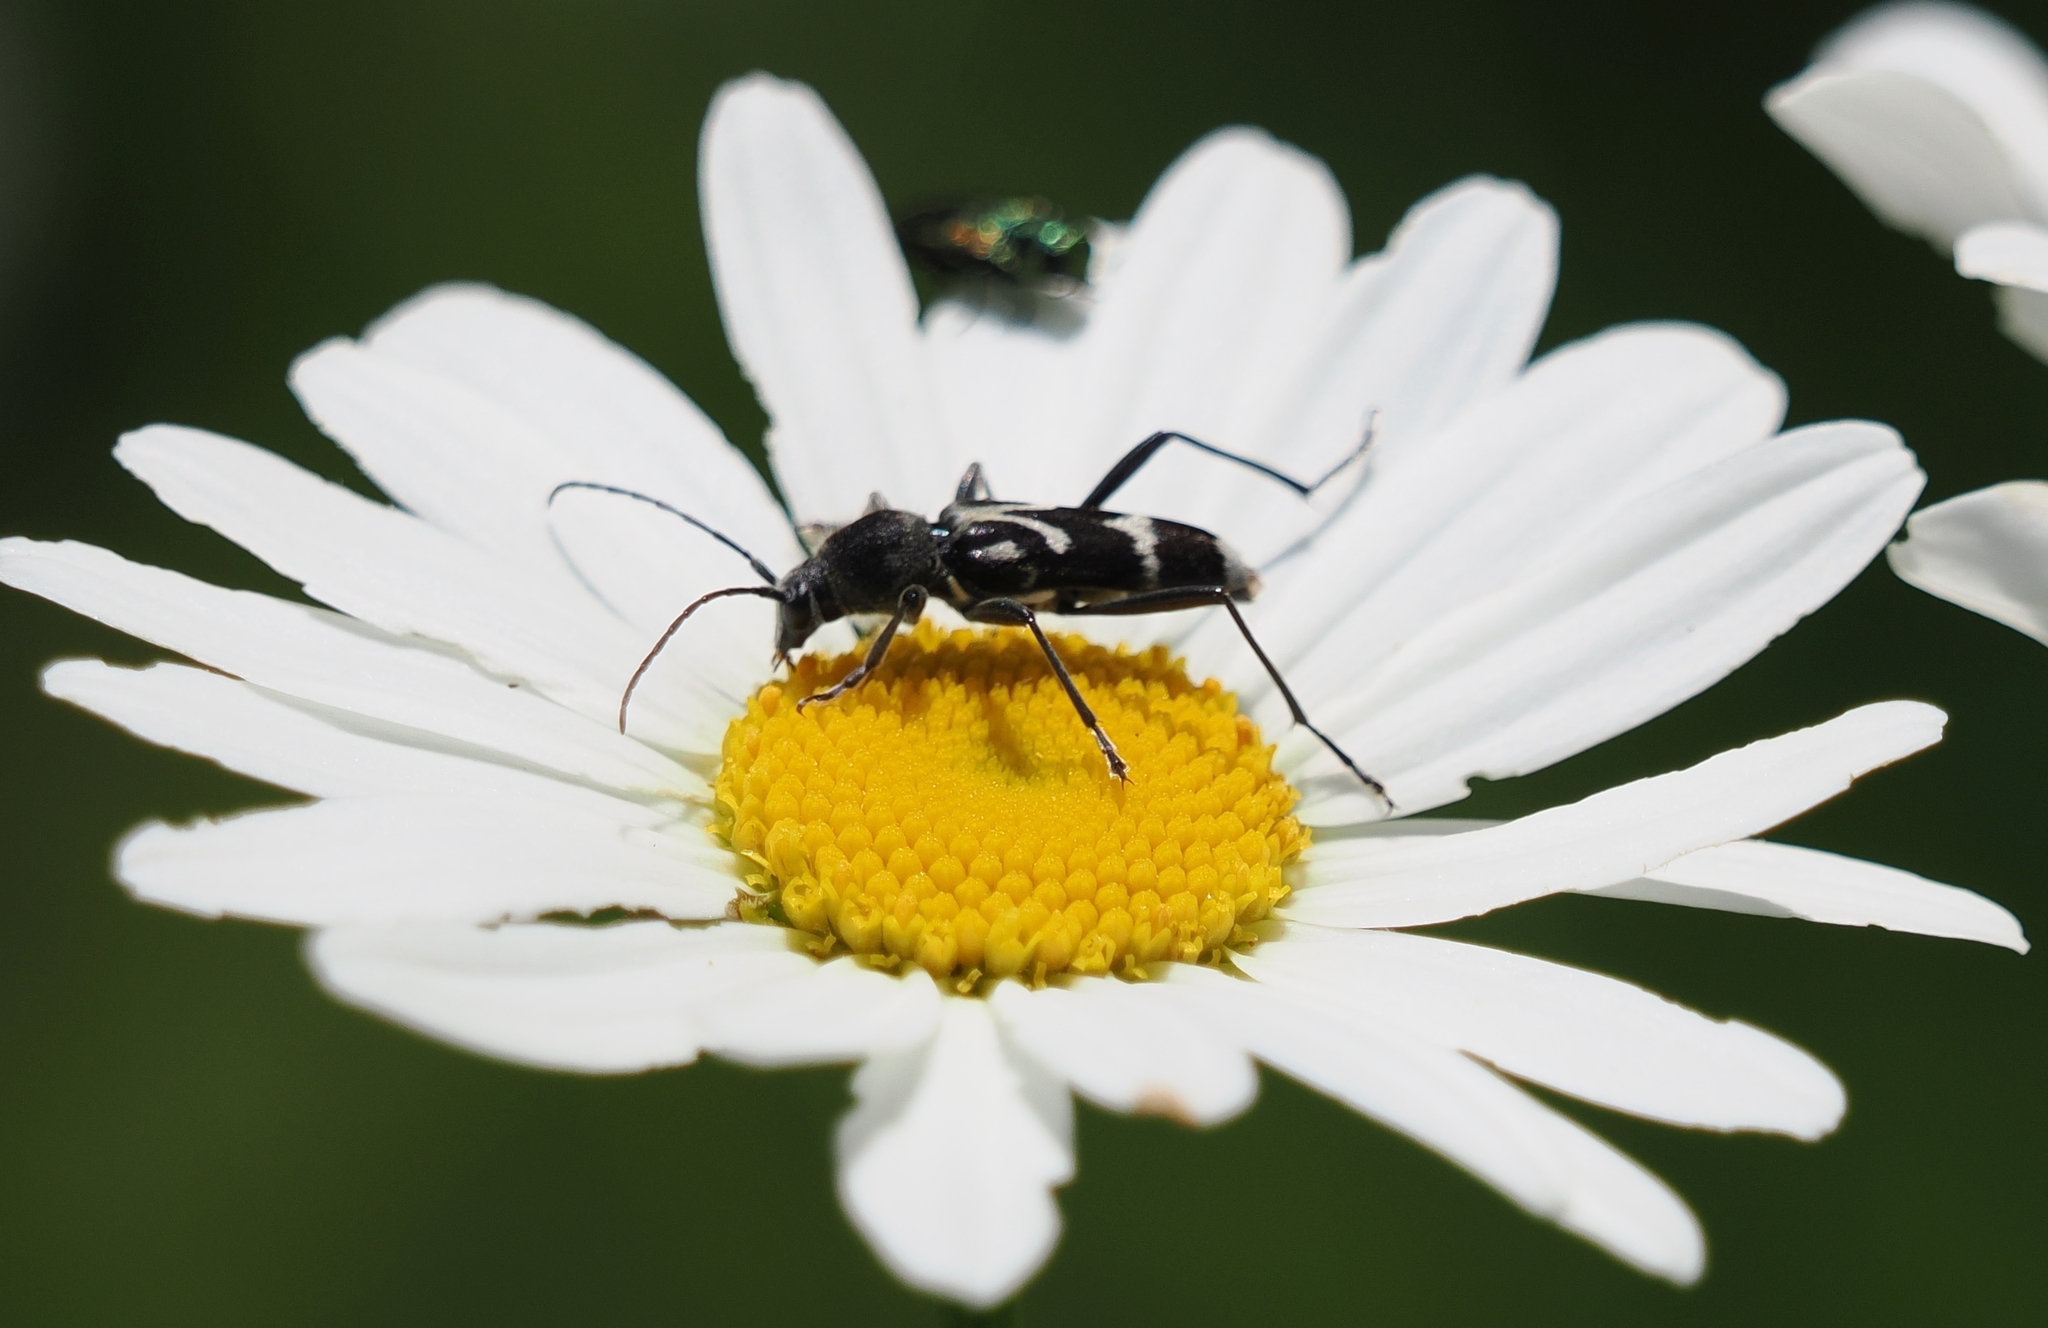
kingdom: Animalia
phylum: Arthropoda
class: Insecta
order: Coleoptera
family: Cerambycidae
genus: Chlorophorus
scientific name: Chlorophorus figuratus
